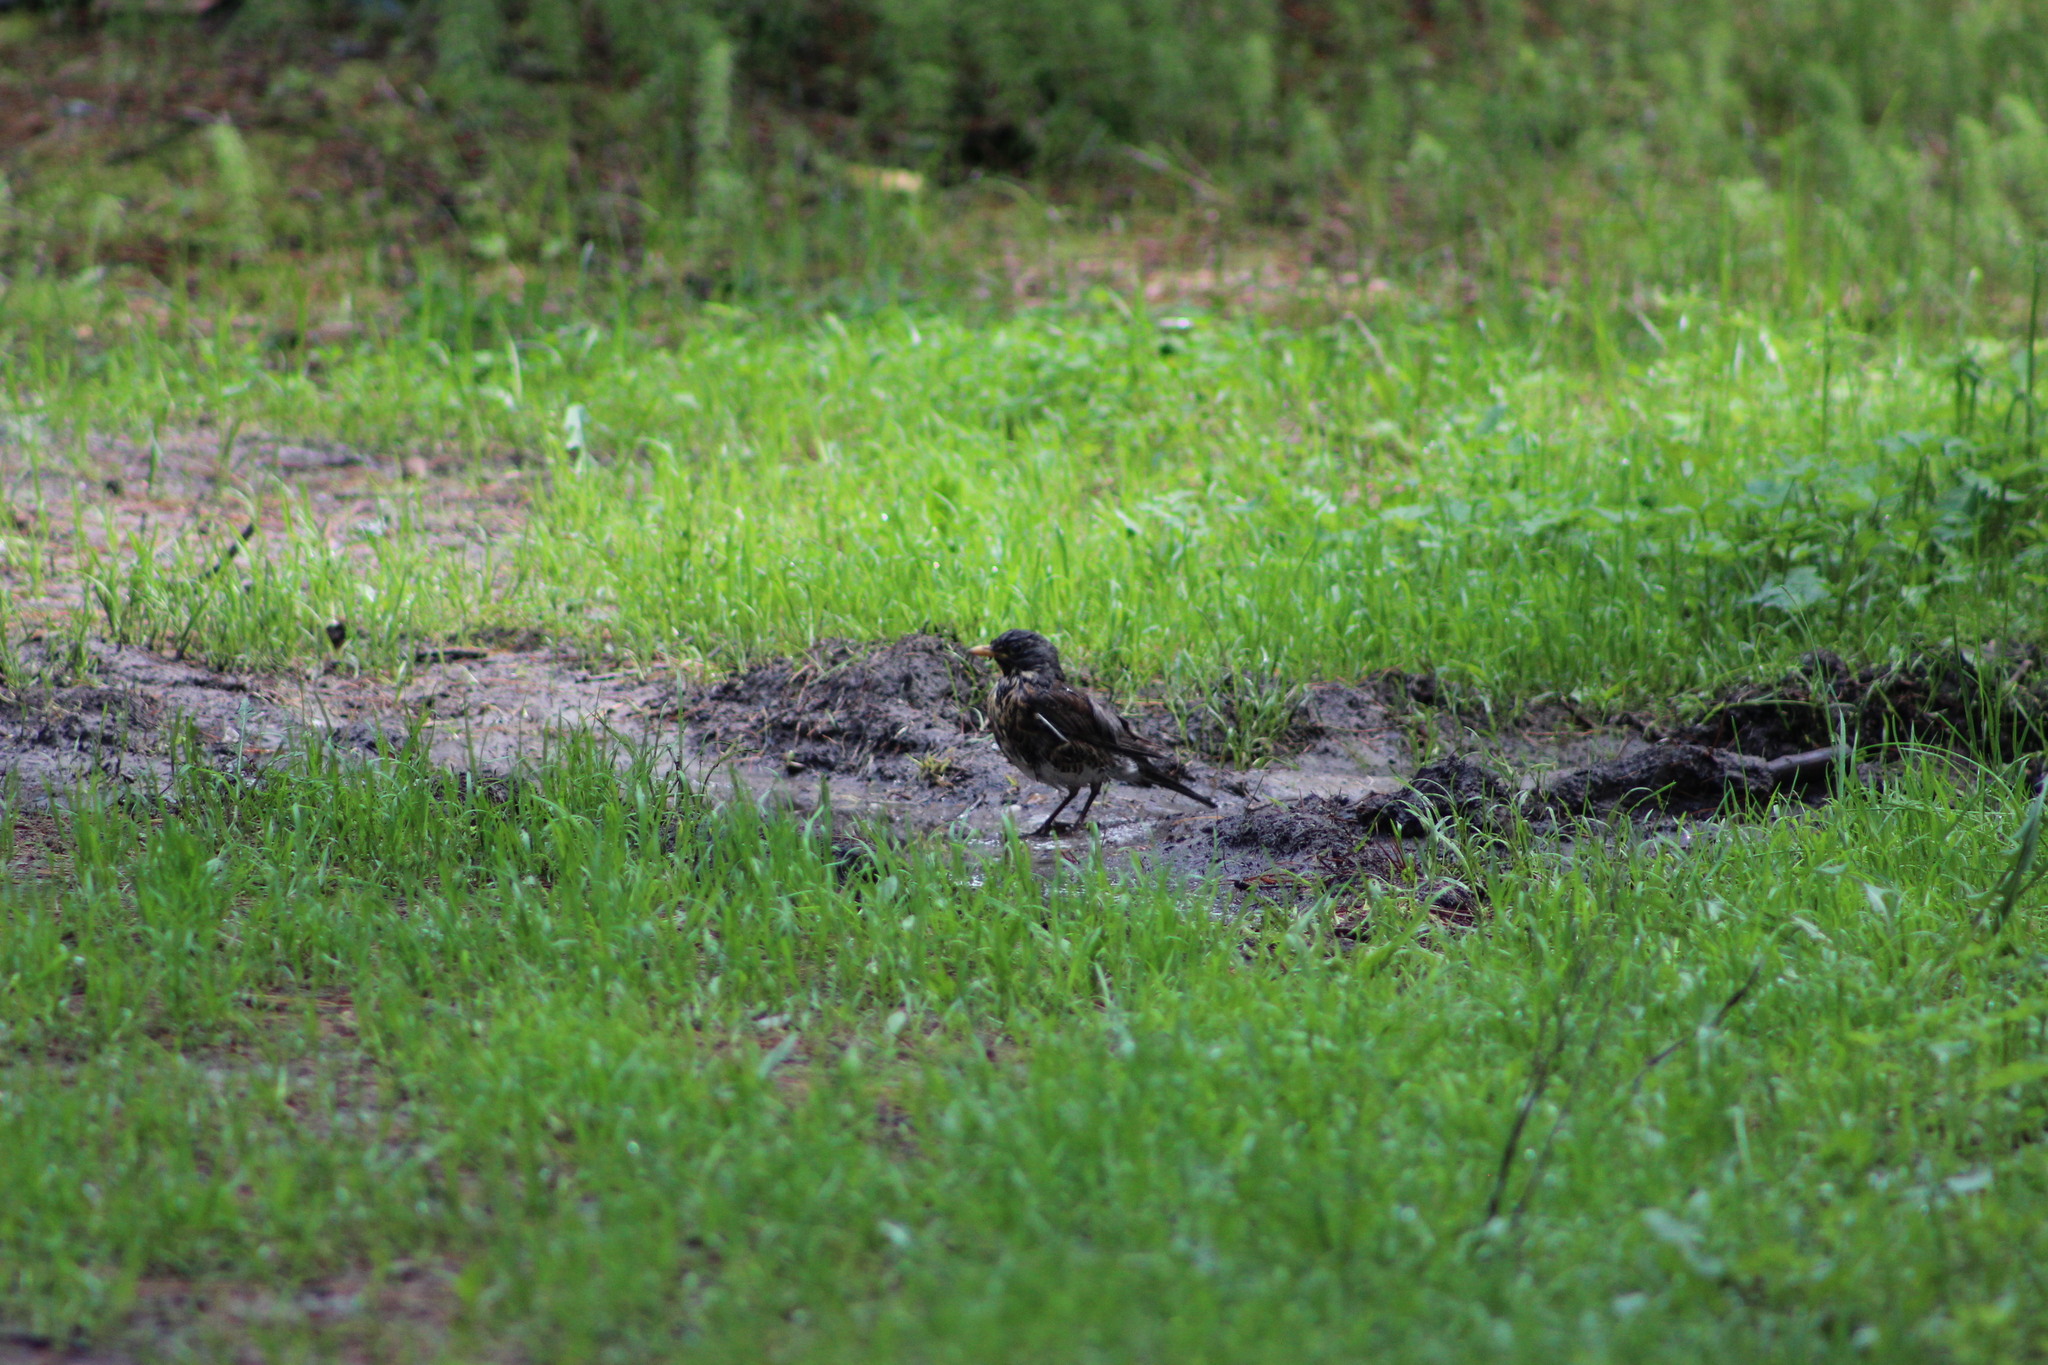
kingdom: Animalia
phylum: Chordata
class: Aves
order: Passeriformes
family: Turdidae
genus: Turdus
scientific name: Turdus pilaris
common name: Fieldfare
